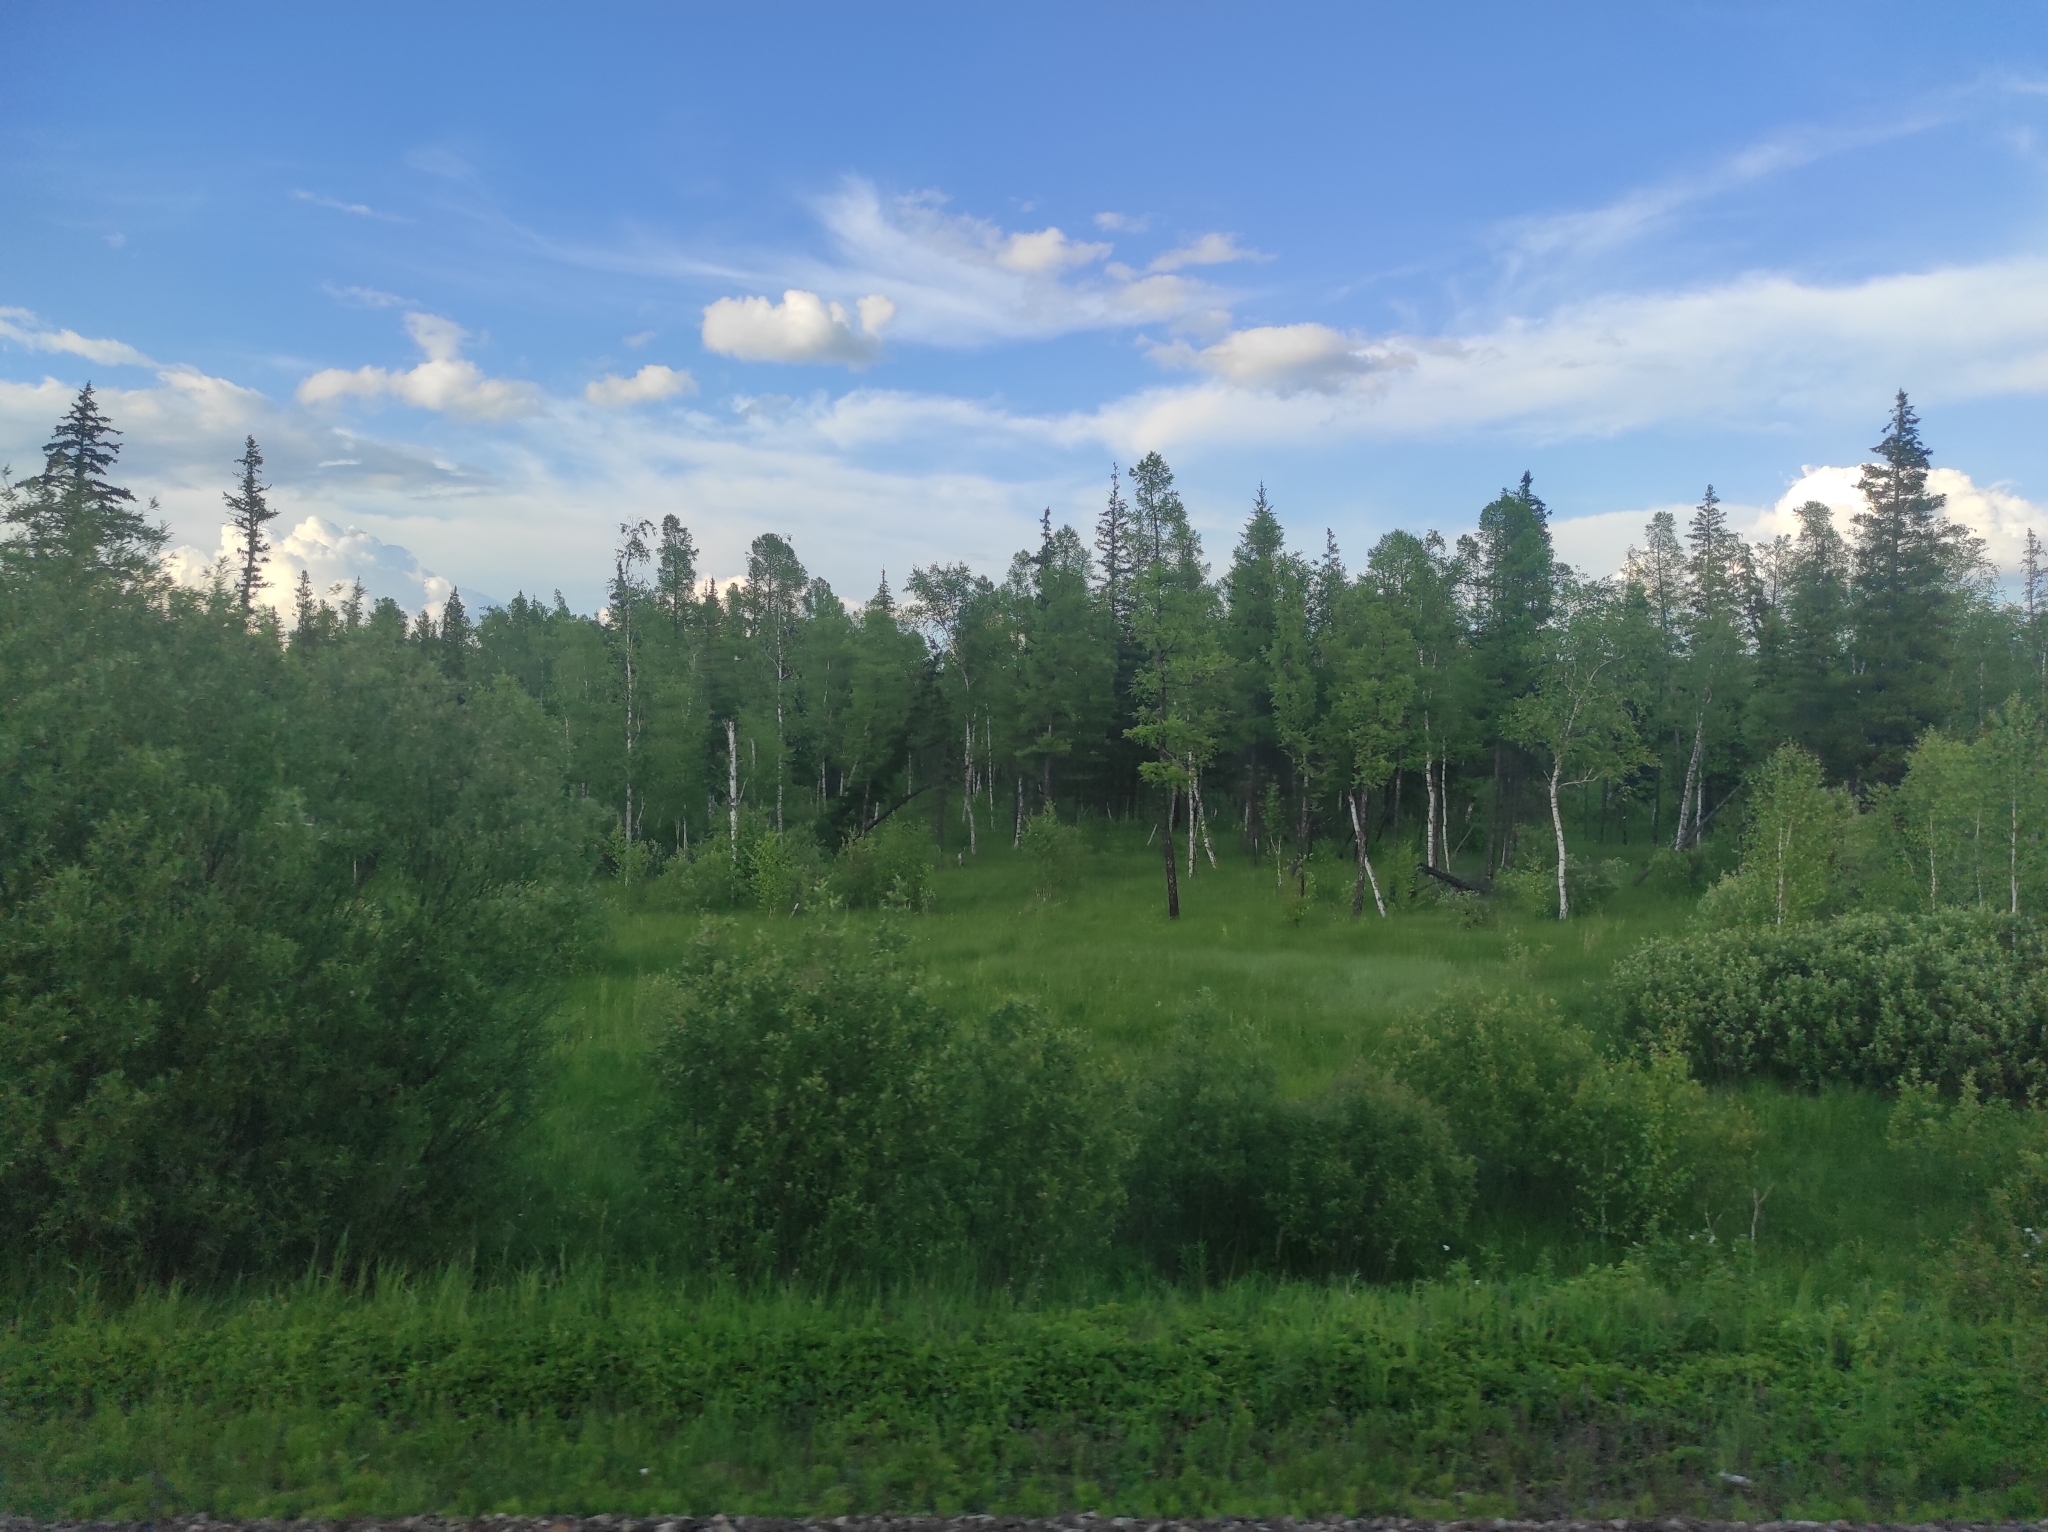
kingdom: Plantae
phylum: Tracheophyta
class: Pinopsida
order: Pinales
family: Pinaceae
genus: Picea
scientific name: Picea obovata
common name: Siberian spruce
